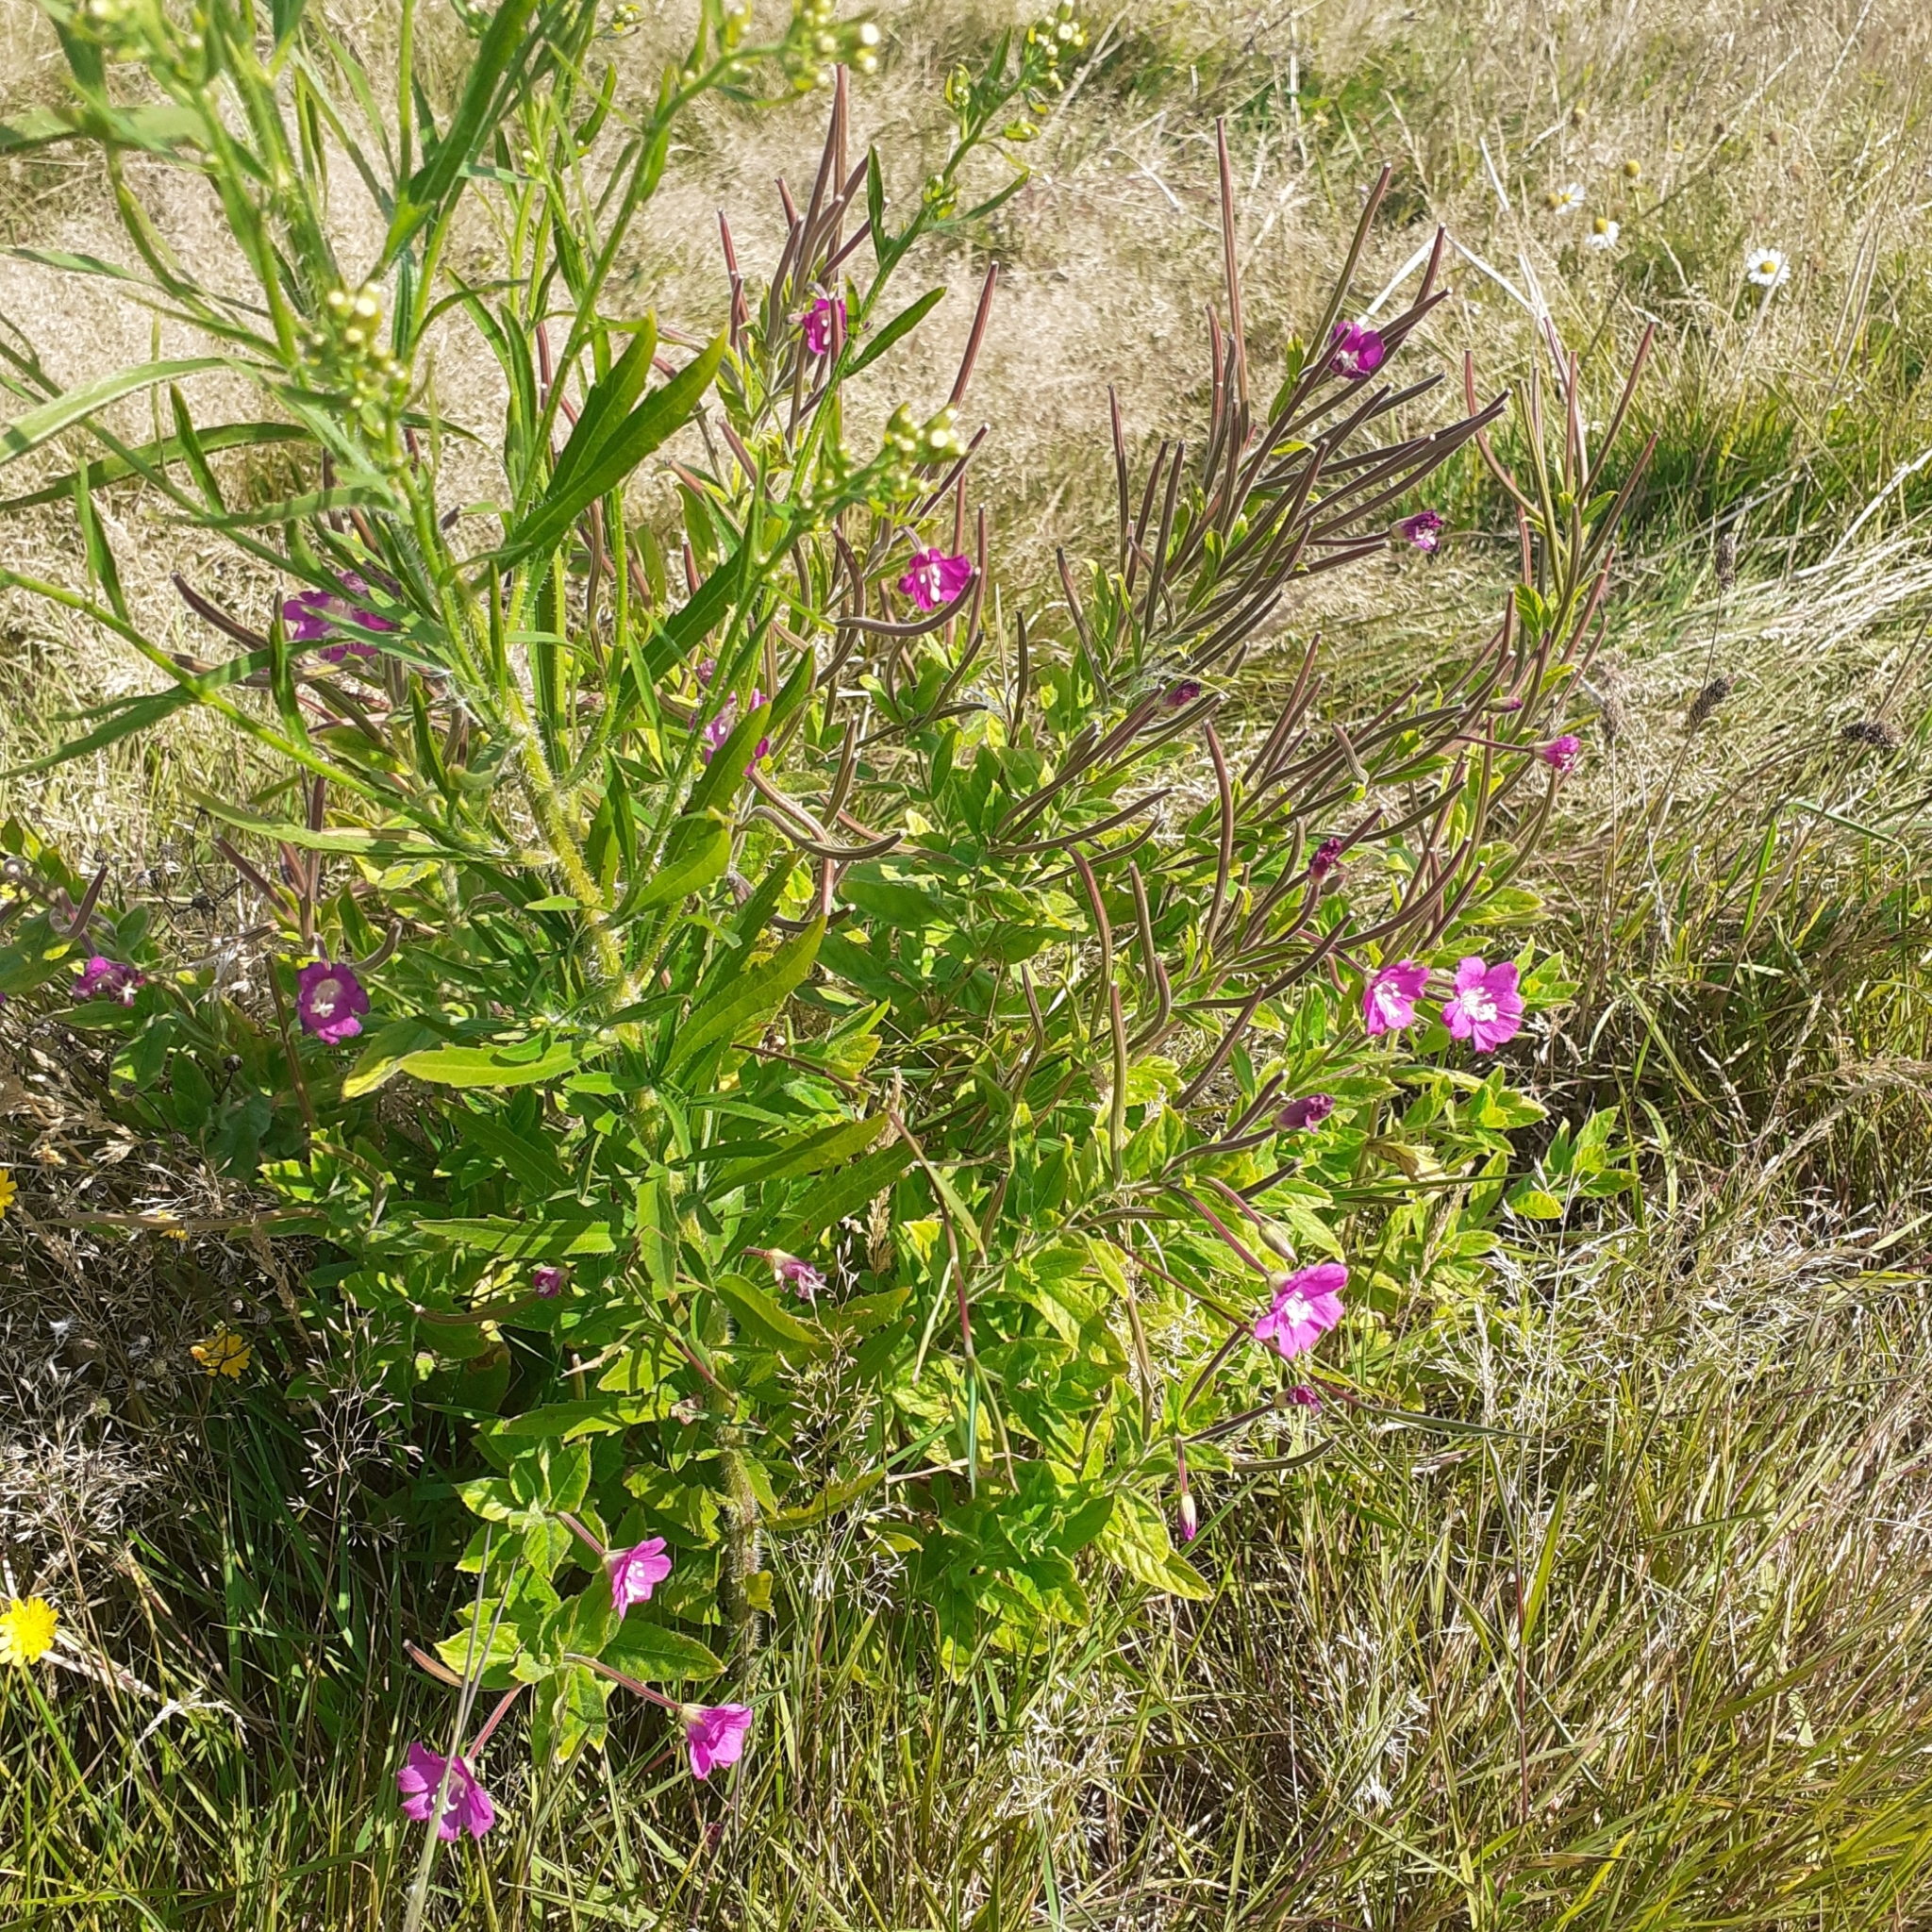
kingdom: Plantae
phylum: Tracheophyta
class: Magnoliopsida
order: Myrtales
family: Onagraceae
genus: Epilobium
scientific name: Epilobium hirsutum
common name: Great willowherb
